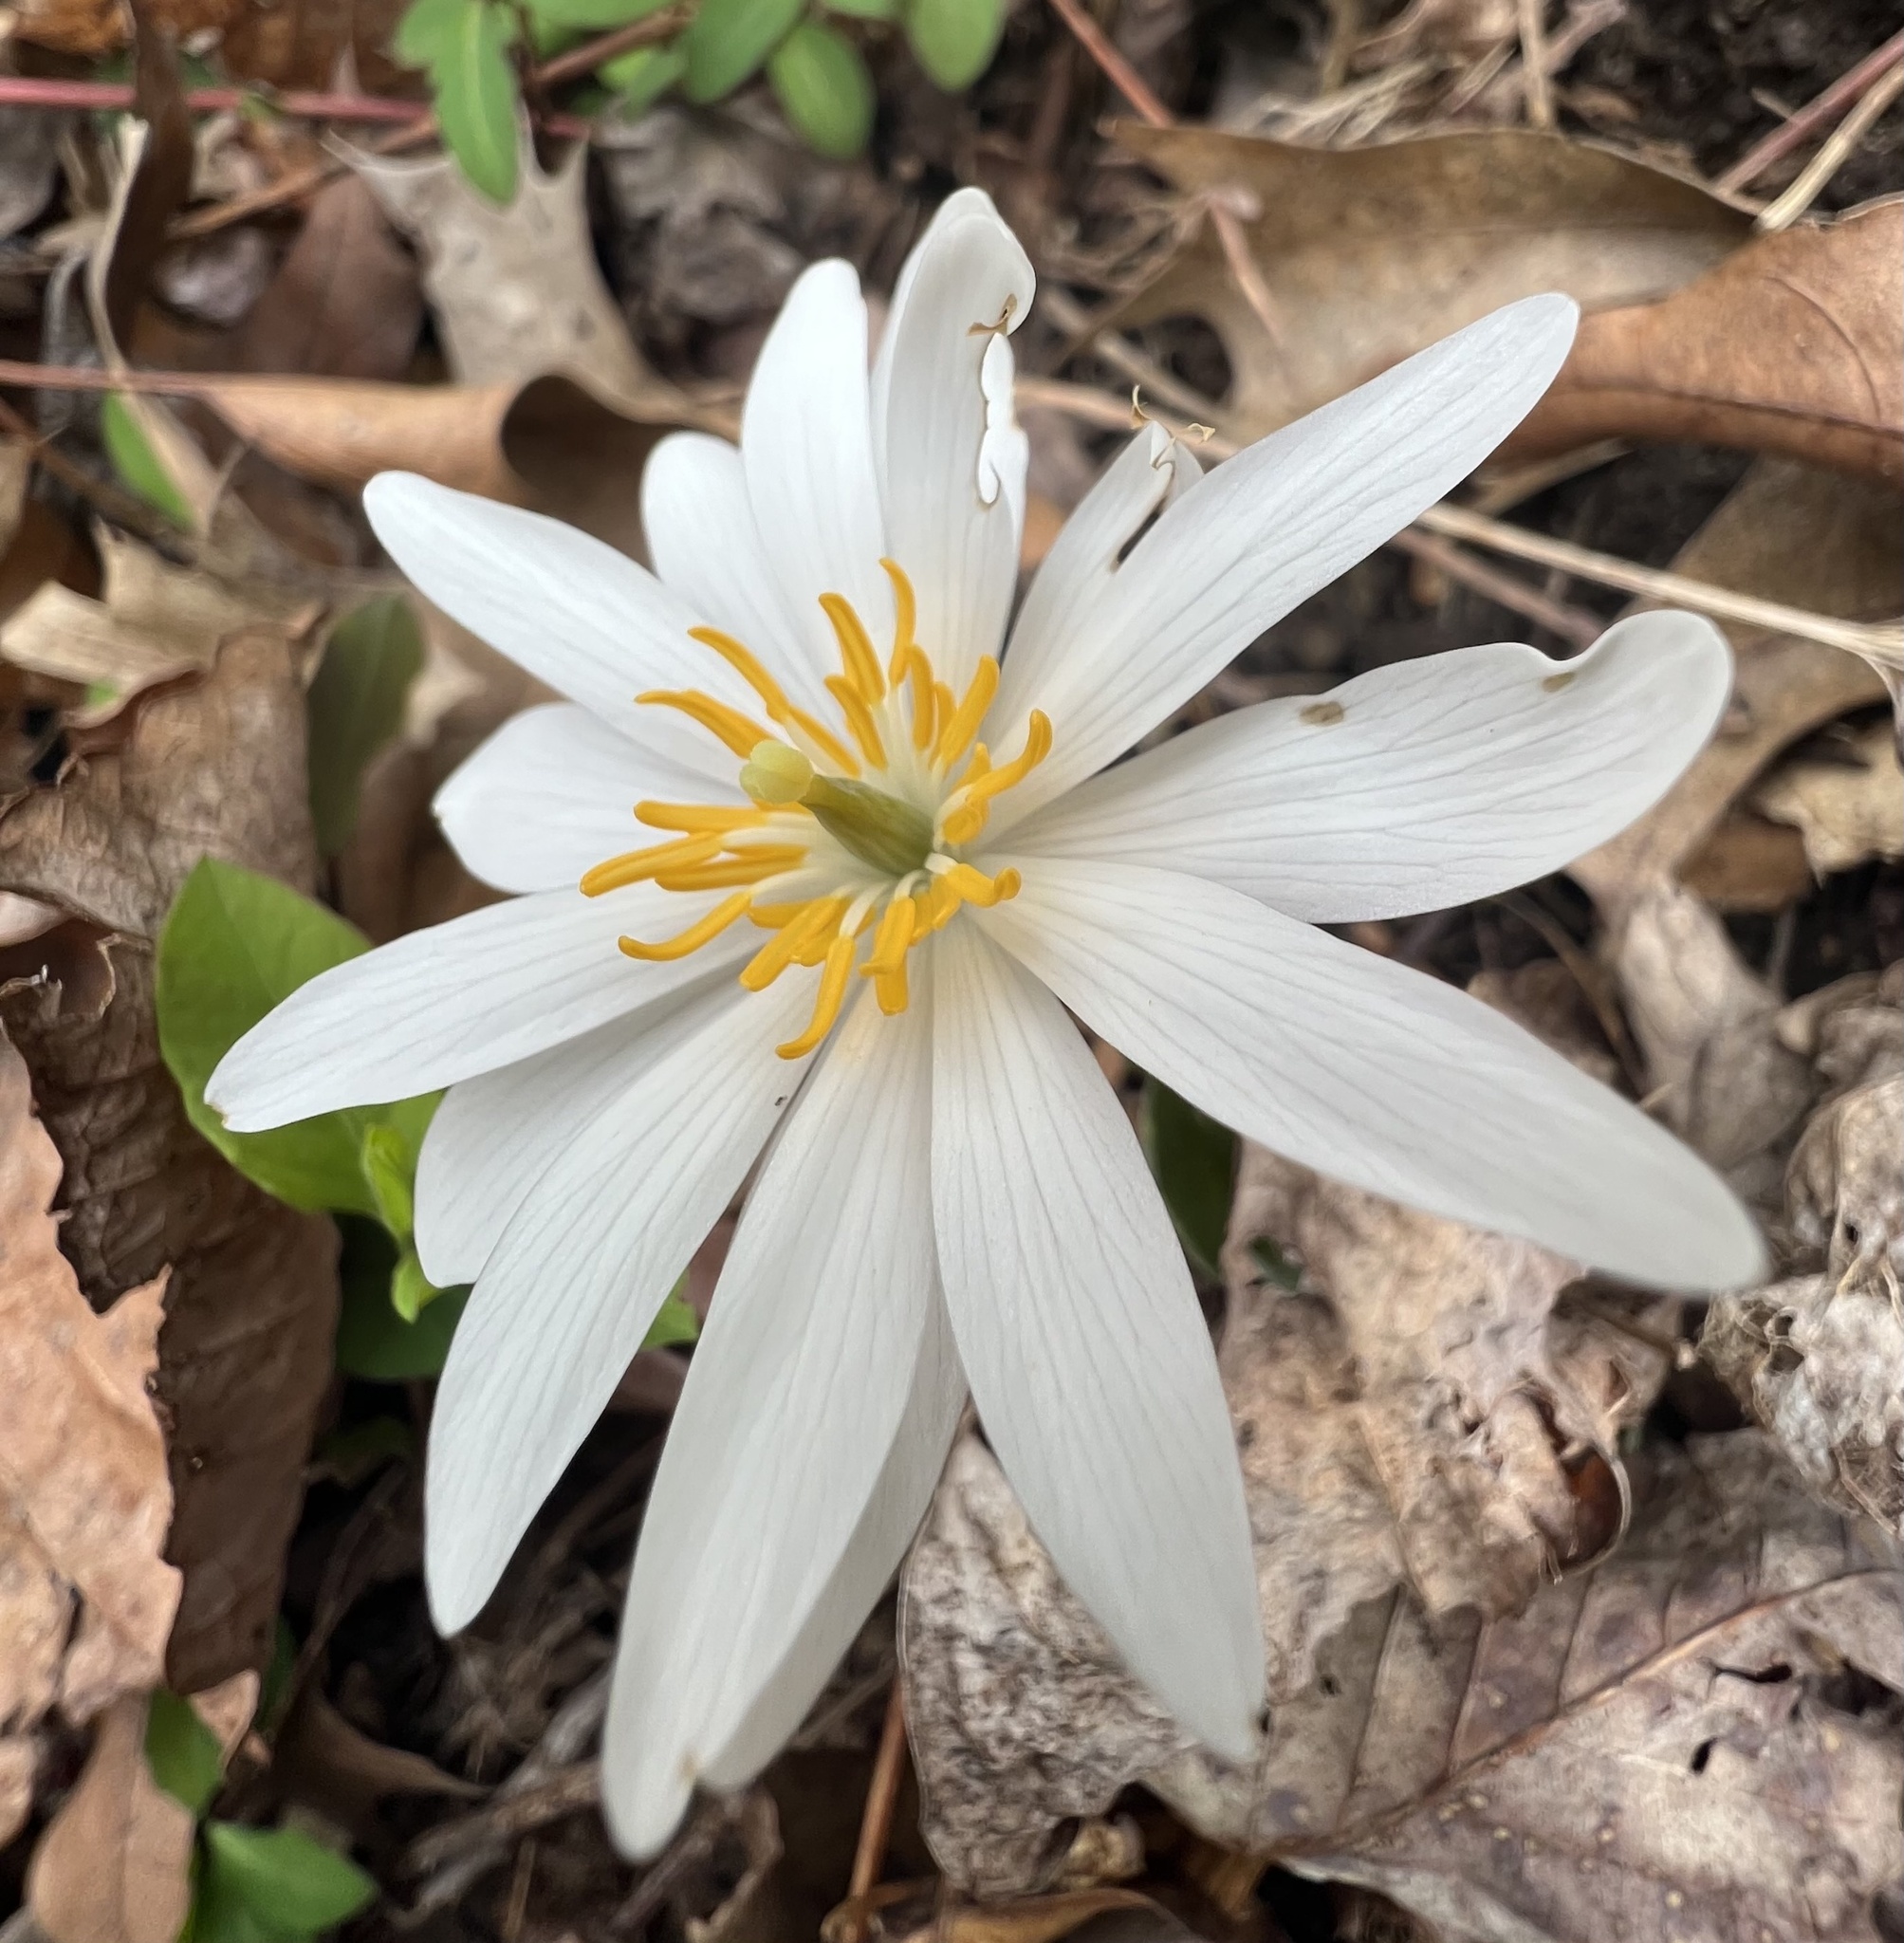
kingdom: Plantae
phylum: Tracheophyta
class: Magnoliopsida
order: Ranunculales
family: Papaveraceae
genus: Sanguinaria
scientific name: Sanguinaria canadensis
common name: Bloodroot
